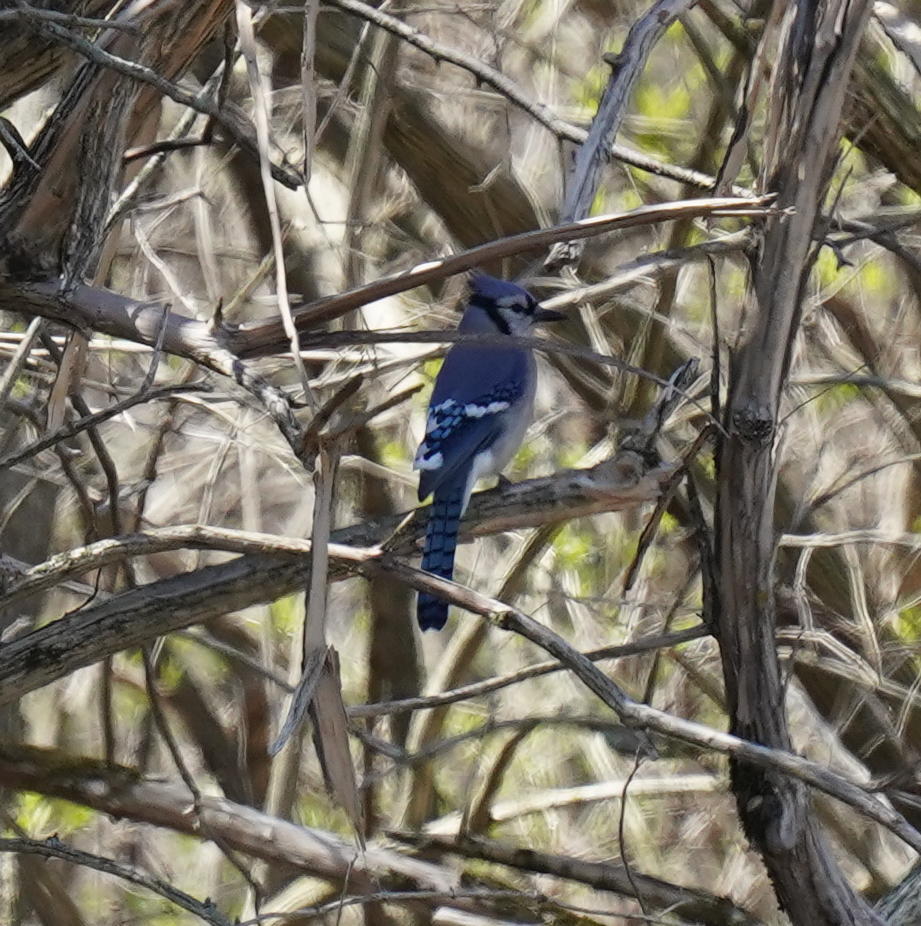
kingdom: Animalia
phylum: Chordata
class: Aves
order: Passeriformes
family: Corvidae
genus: Cyanocitta
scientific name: Cyanocitta cristata
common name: Blue jay
